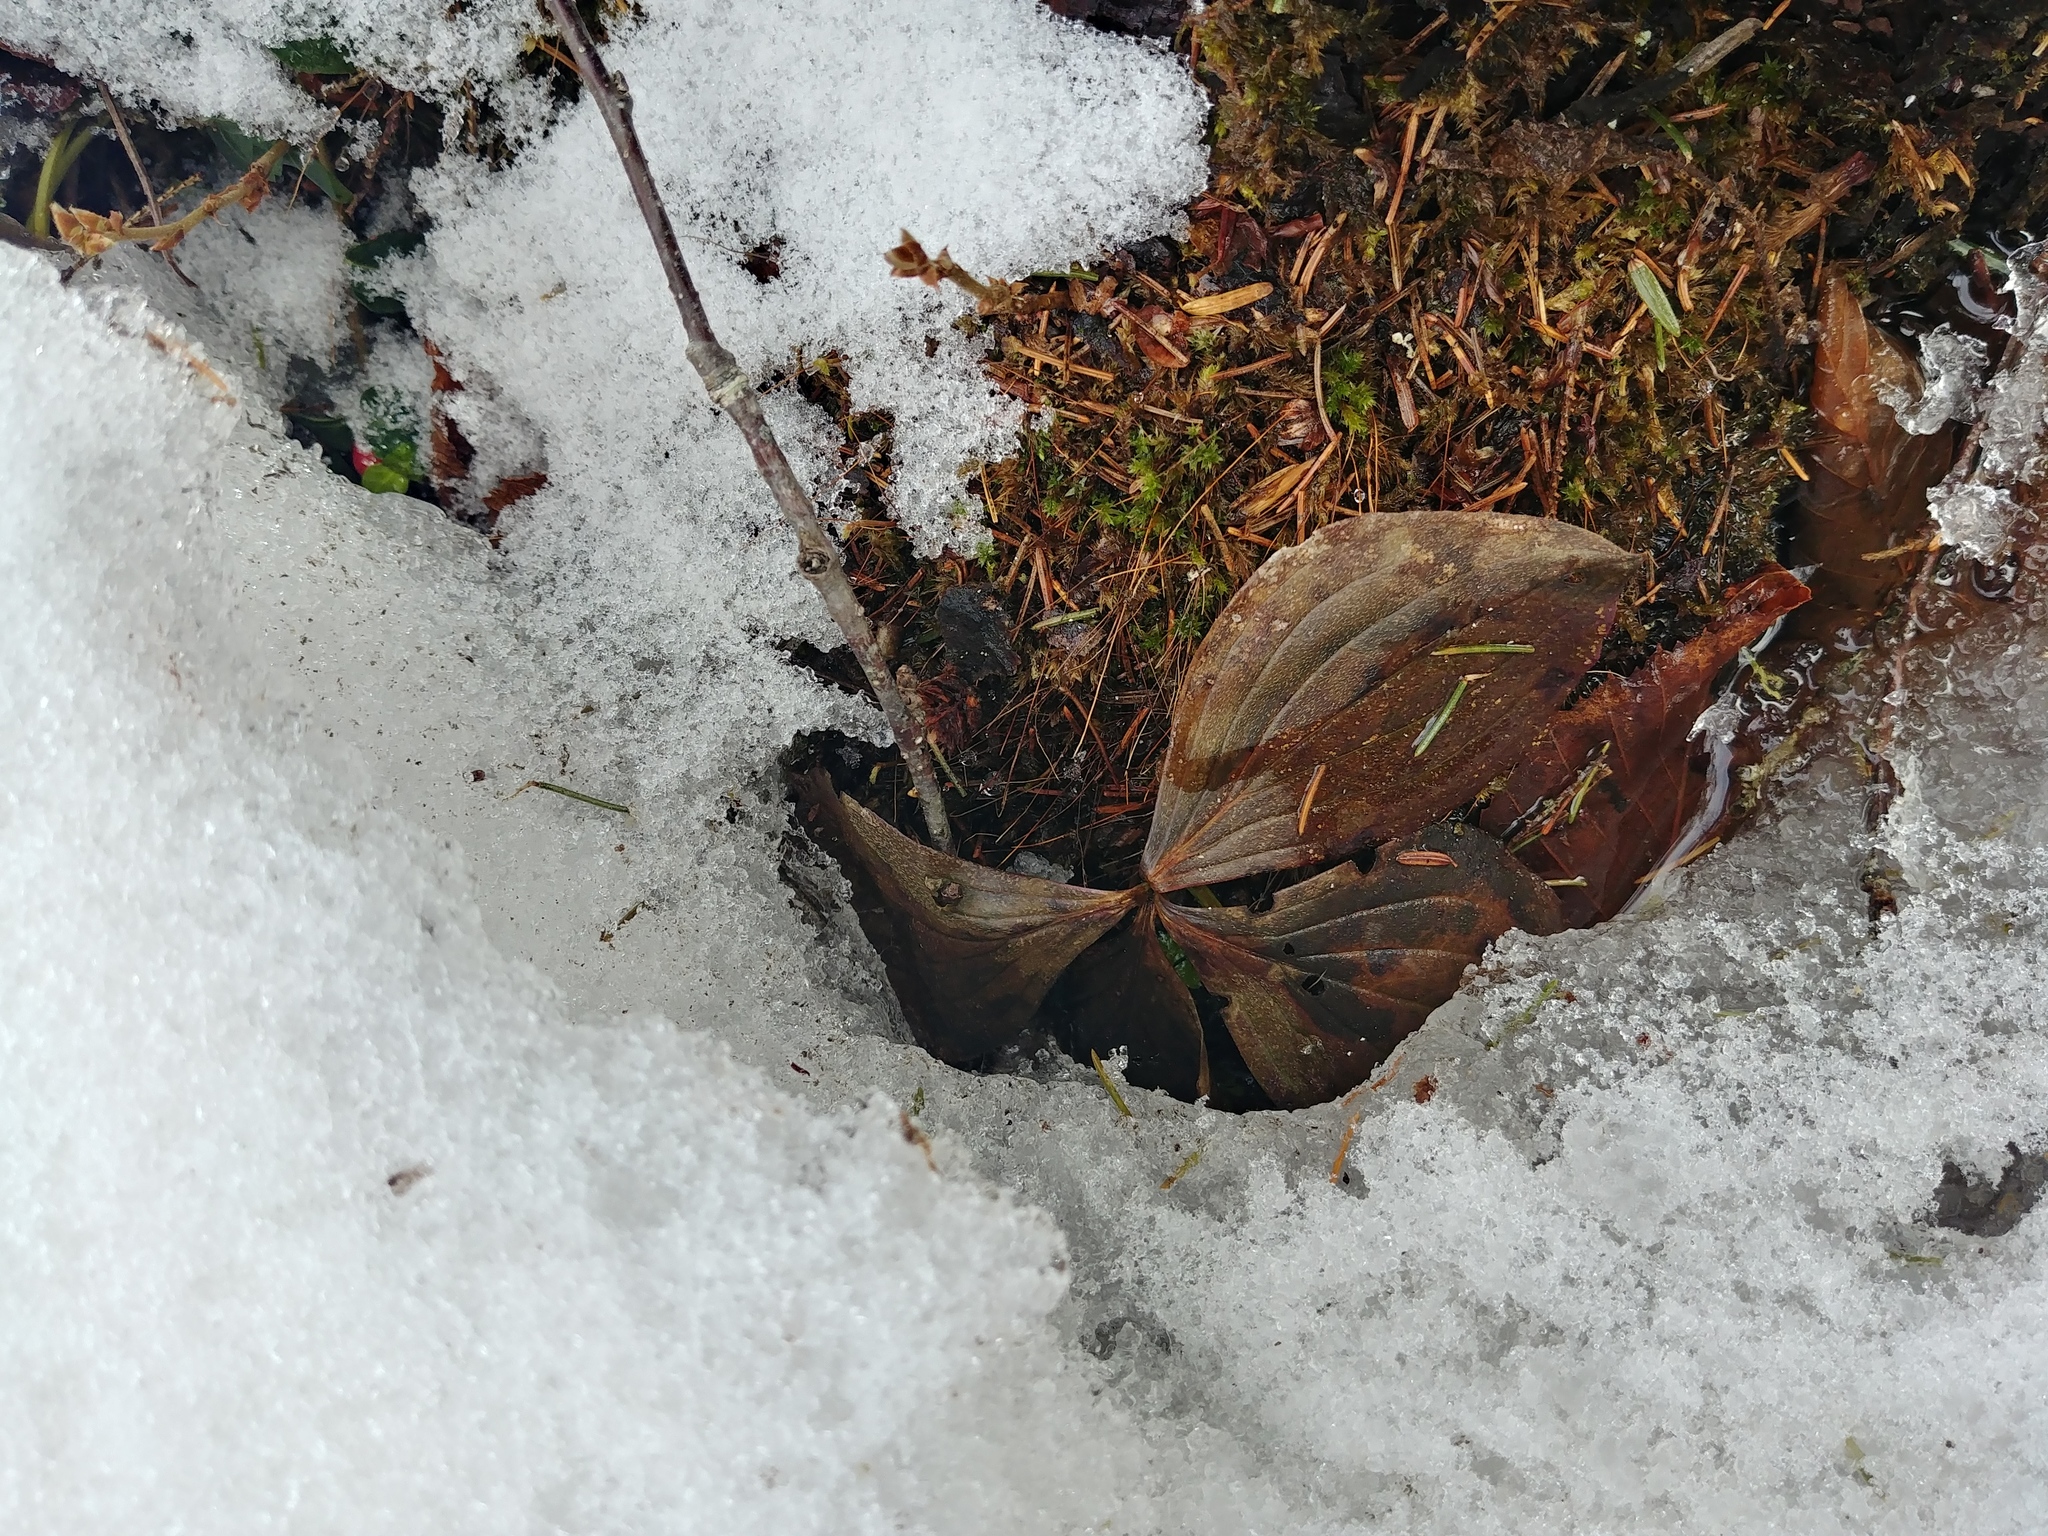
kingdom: Plantae
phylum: Tracheophyta
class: Magnoliopsida
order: Cornales
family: Cornaceae
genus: Cornus
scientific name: Cornus canadensis
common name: Creeping dogwood
